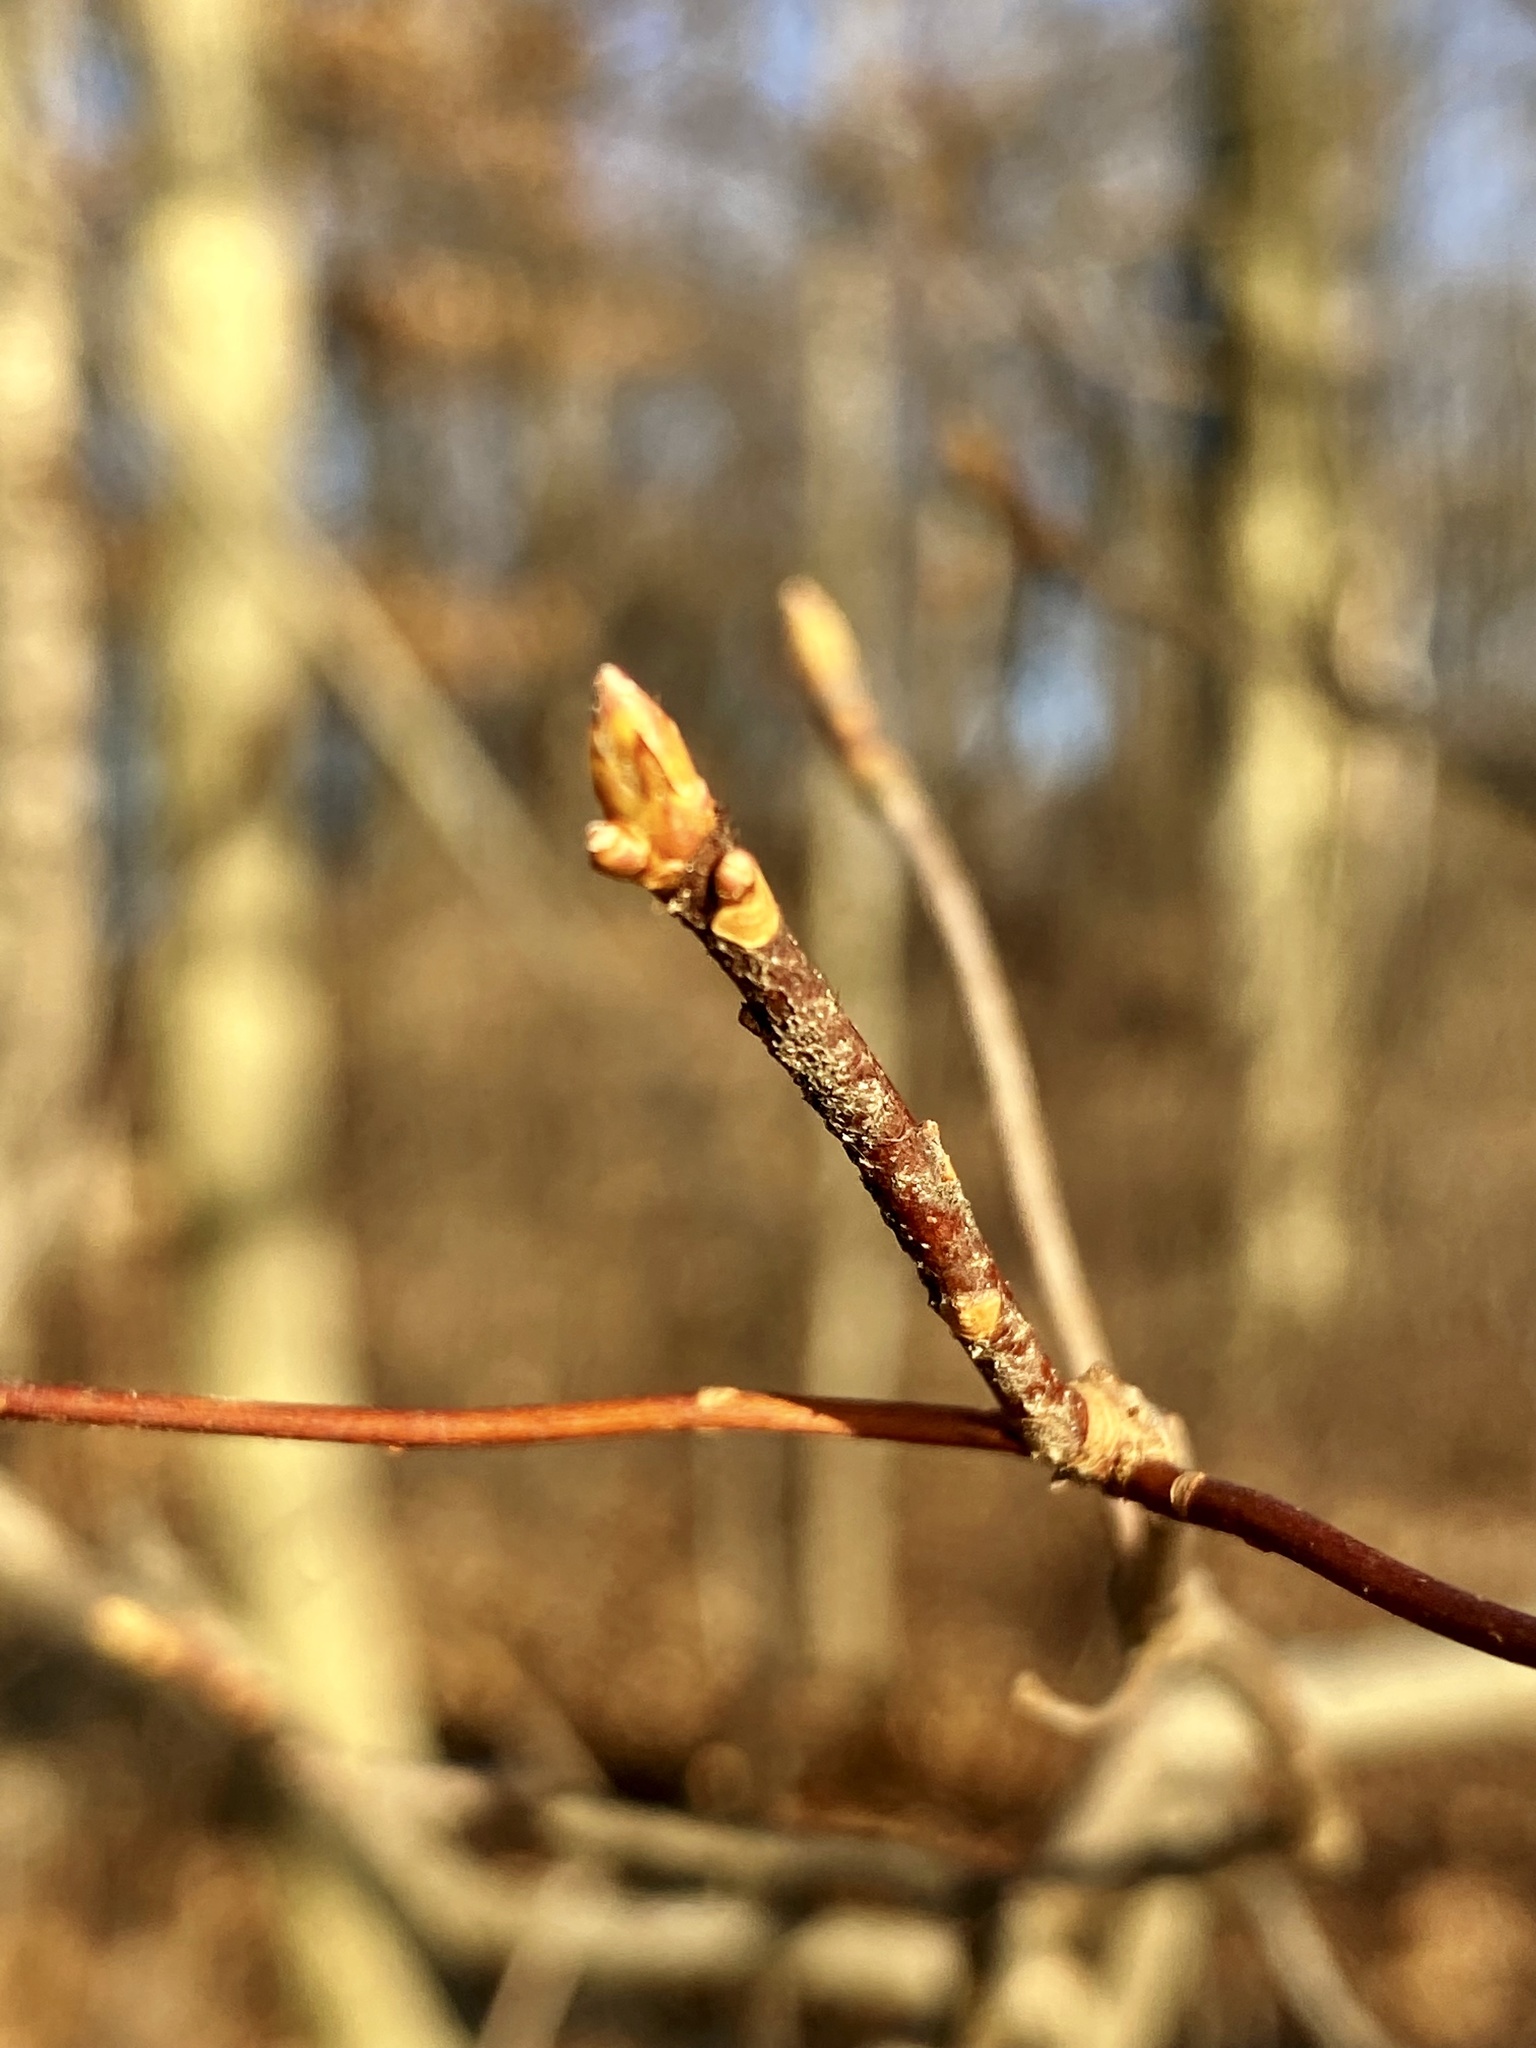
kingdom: Plantae
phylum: Tracheophyta
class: Magnoliopsida
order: Ericales
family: Ericaceae
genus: Rhododendron
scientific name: Rhododendron viscosum
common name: Clammy azalea
